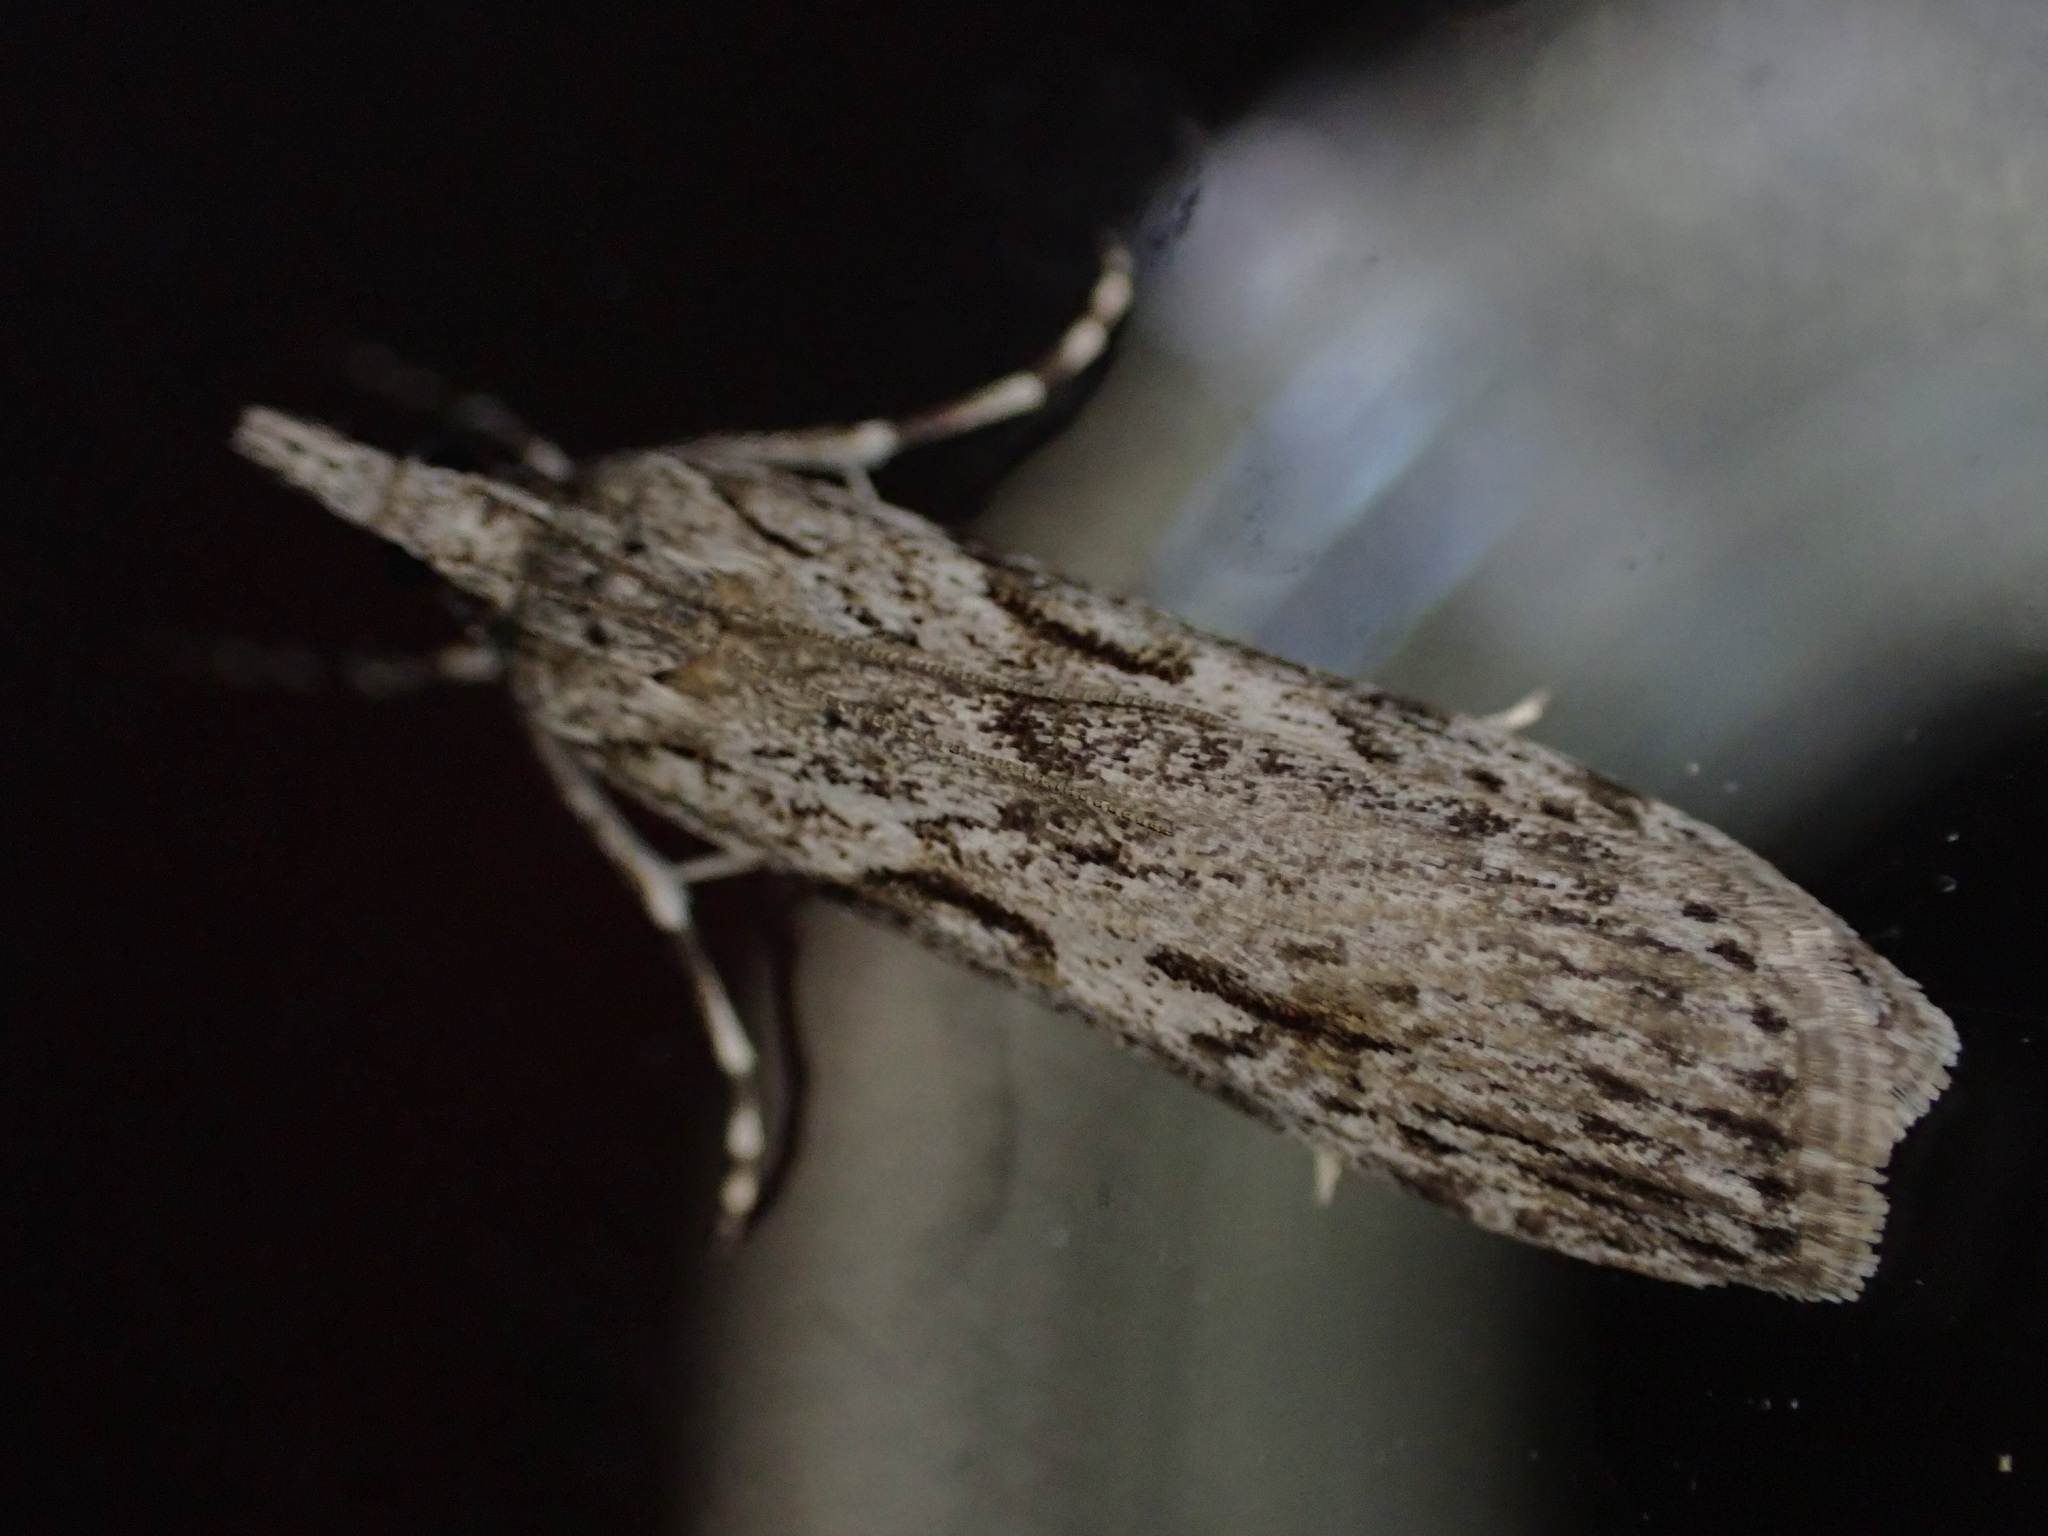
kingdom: Animalia
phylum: Arthropoda
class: Insecta
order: Lepidoptera
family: Crambidae
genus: Scoparia
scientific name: Scoparia halopis
